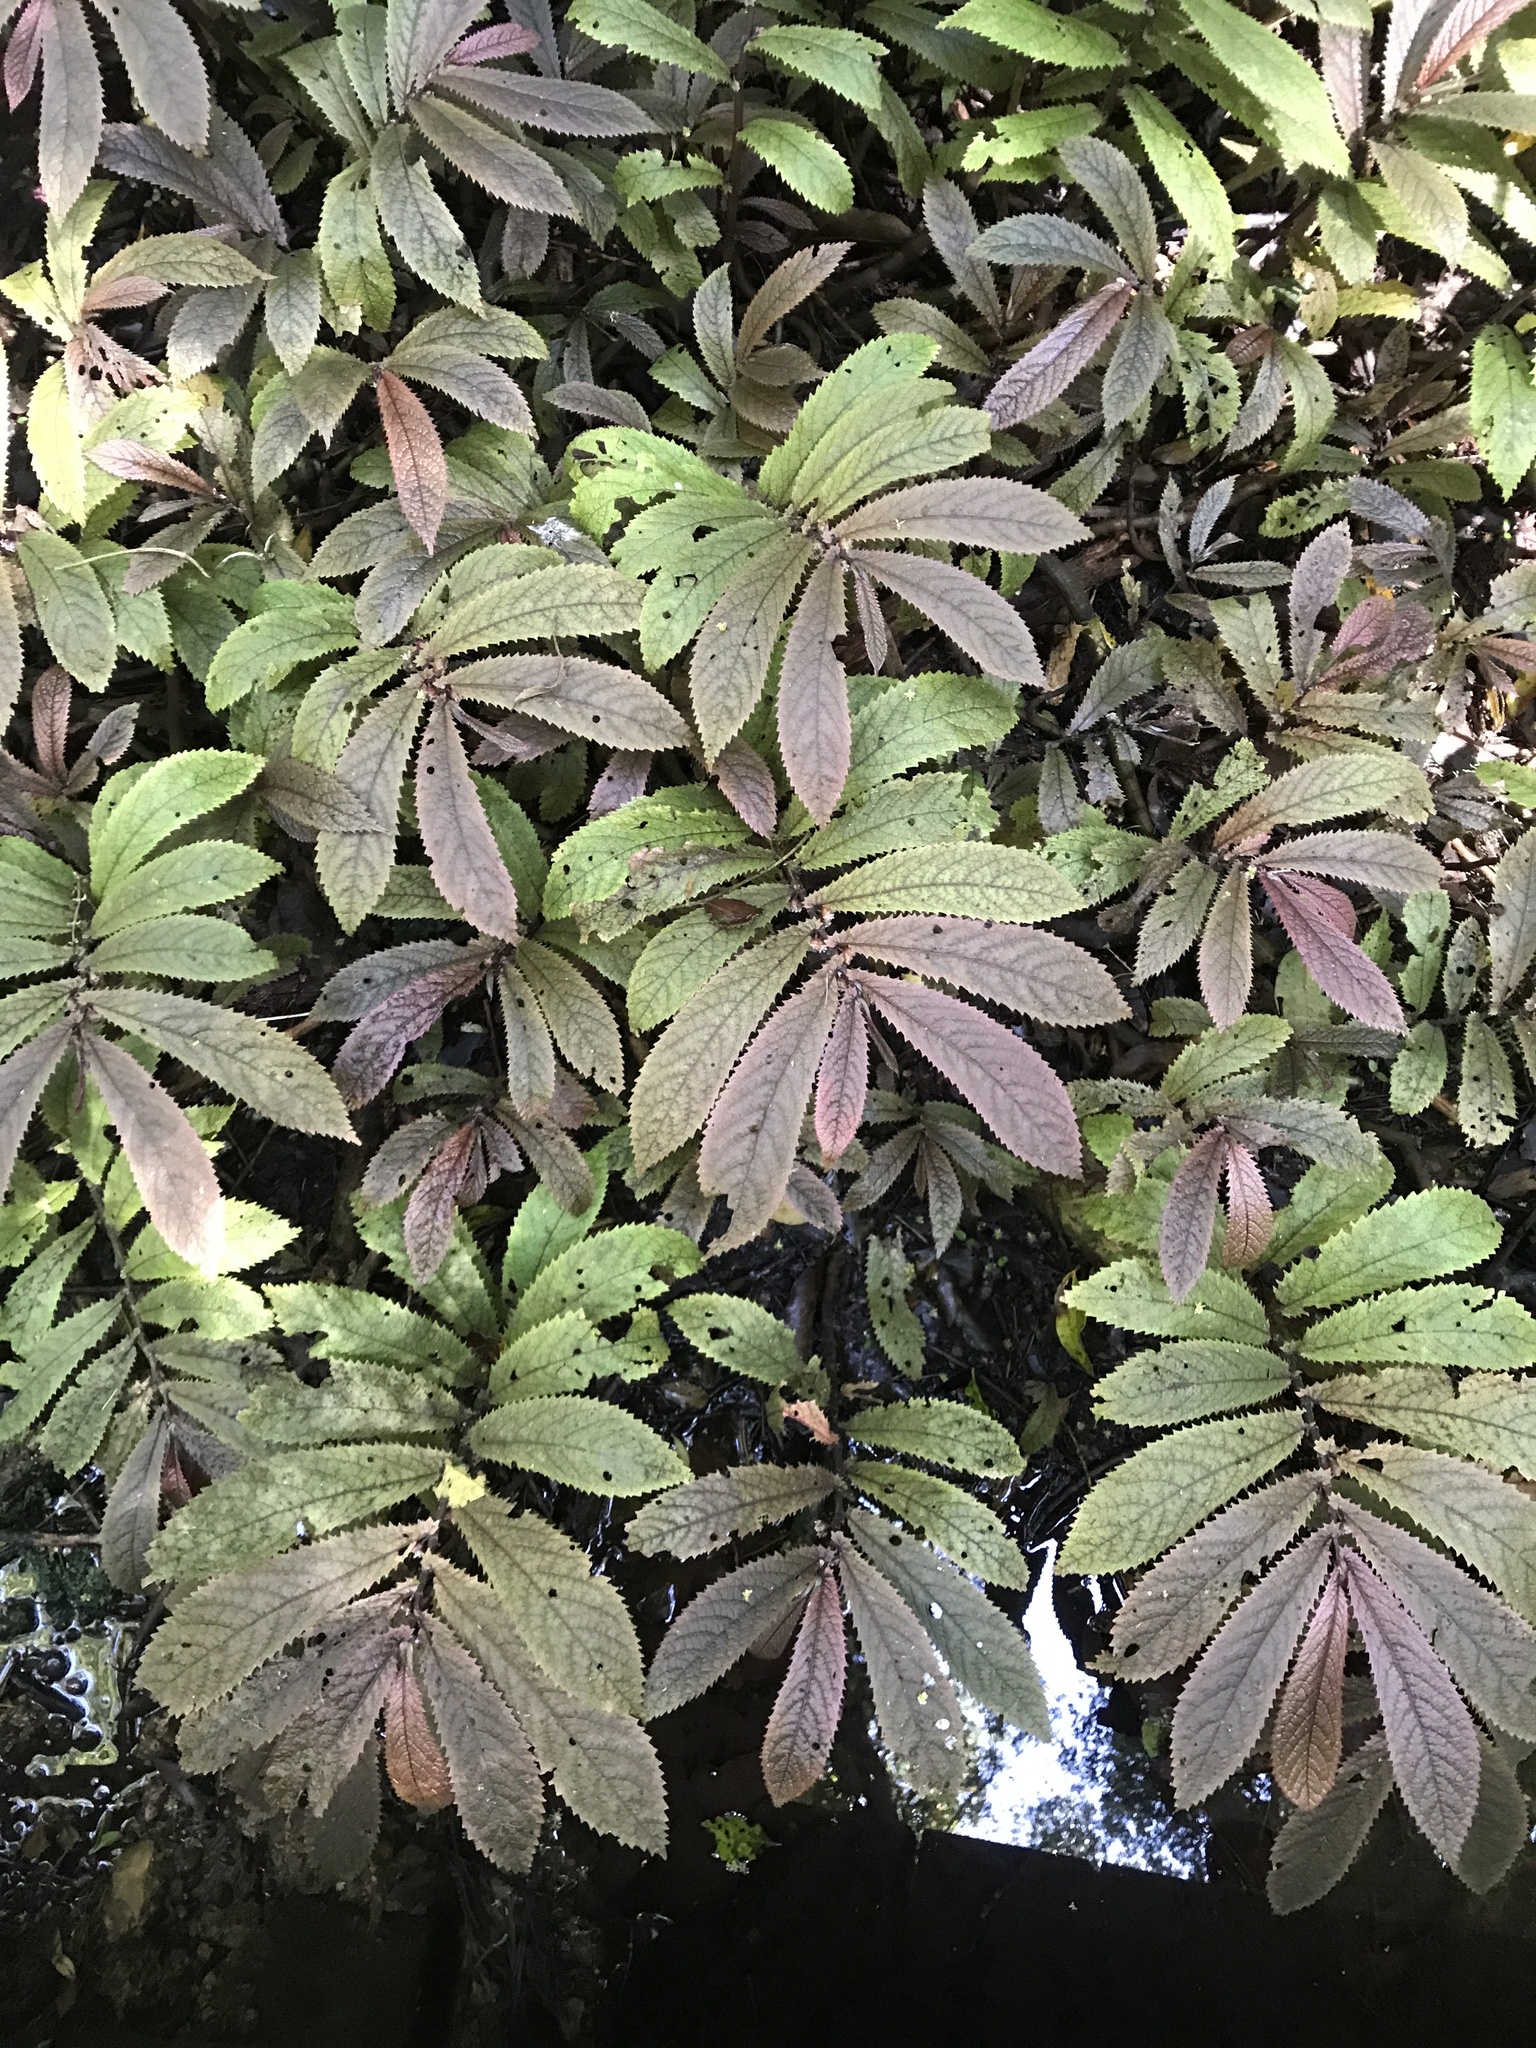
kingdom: Plantae
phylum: Tracheophyta
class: Magnoliopsida
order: Rosales
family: Urticaceae
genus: Elatostema
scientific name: Elatostema rugosum
